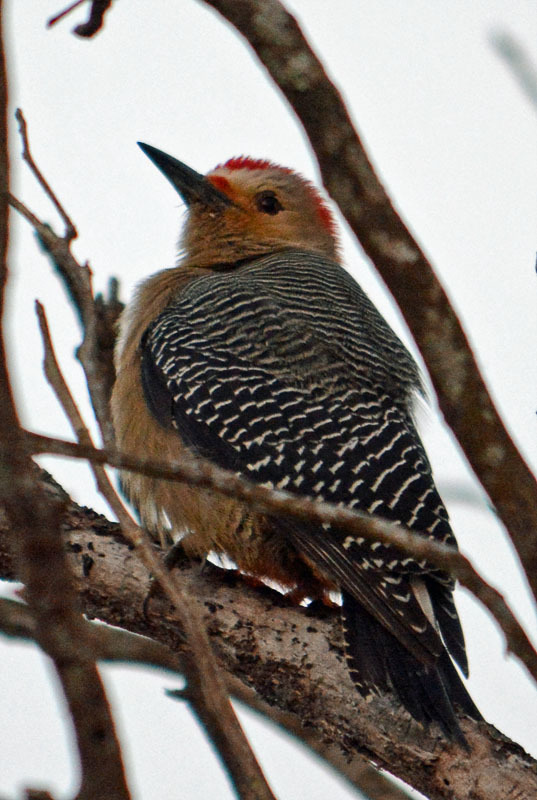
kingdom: Animalia
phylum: Chordata
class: Aves
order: Piciformes
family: Picidae
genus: Melanerpes
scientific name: Melanerpes aurifrons
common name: Golden-fronted woodpecker
